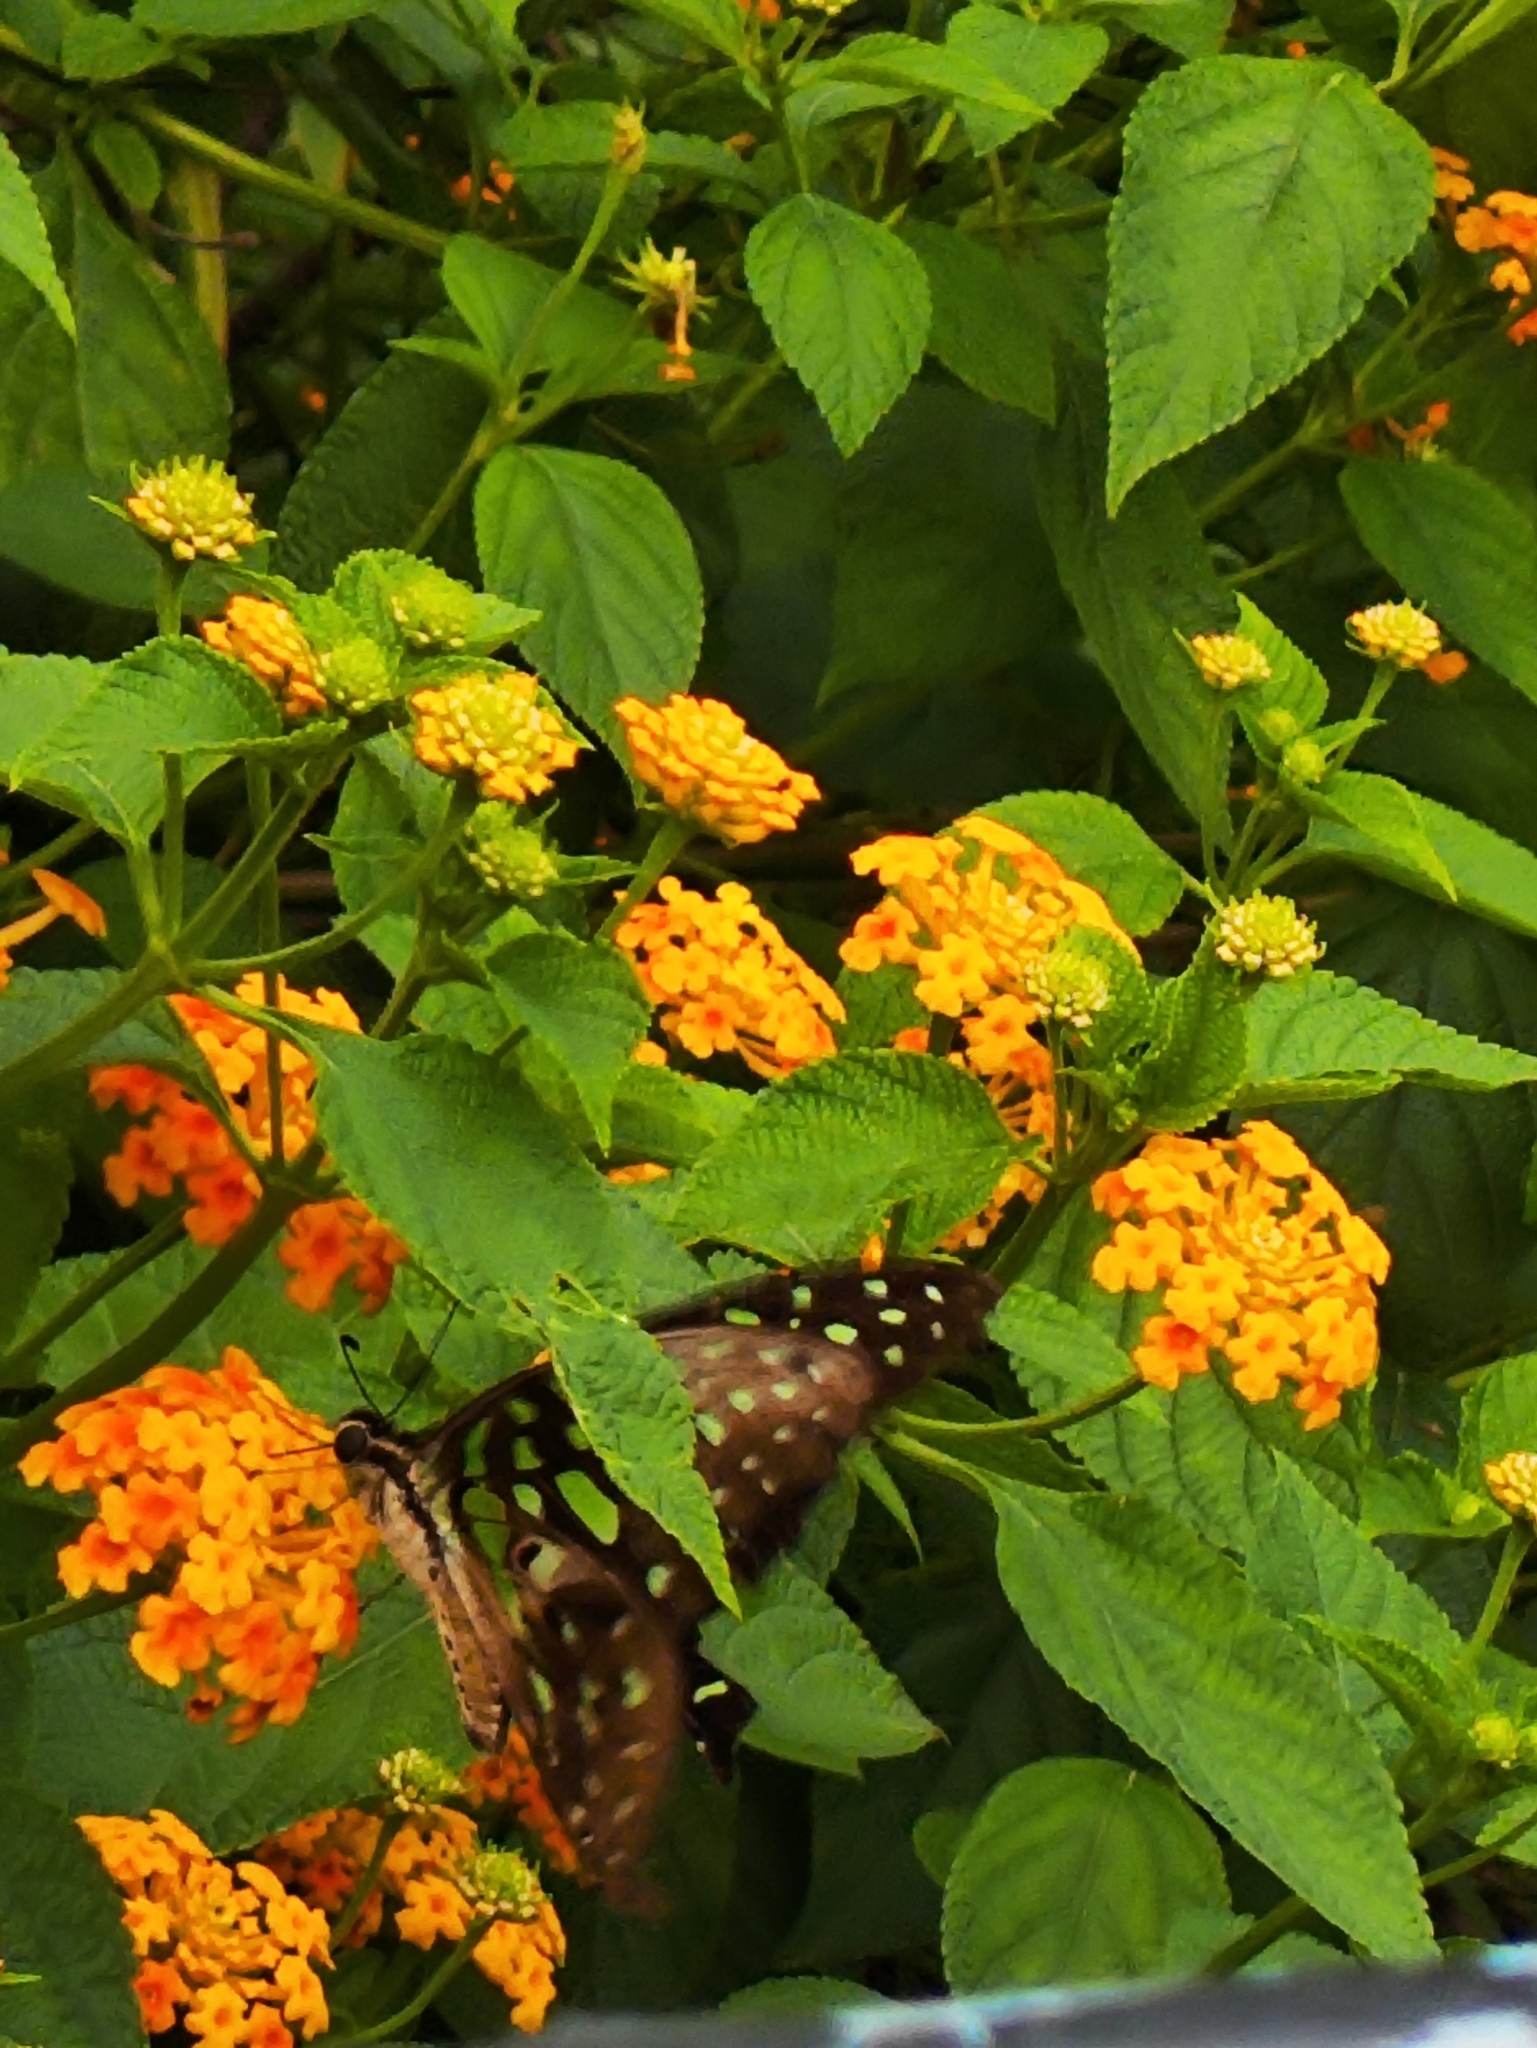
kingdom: Animalia
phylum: Arthropoda
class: Insecta
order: Lepidoptera
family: Papilionidae
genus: Graphium
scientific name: Graphium agamemnon
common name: Tailed jay
